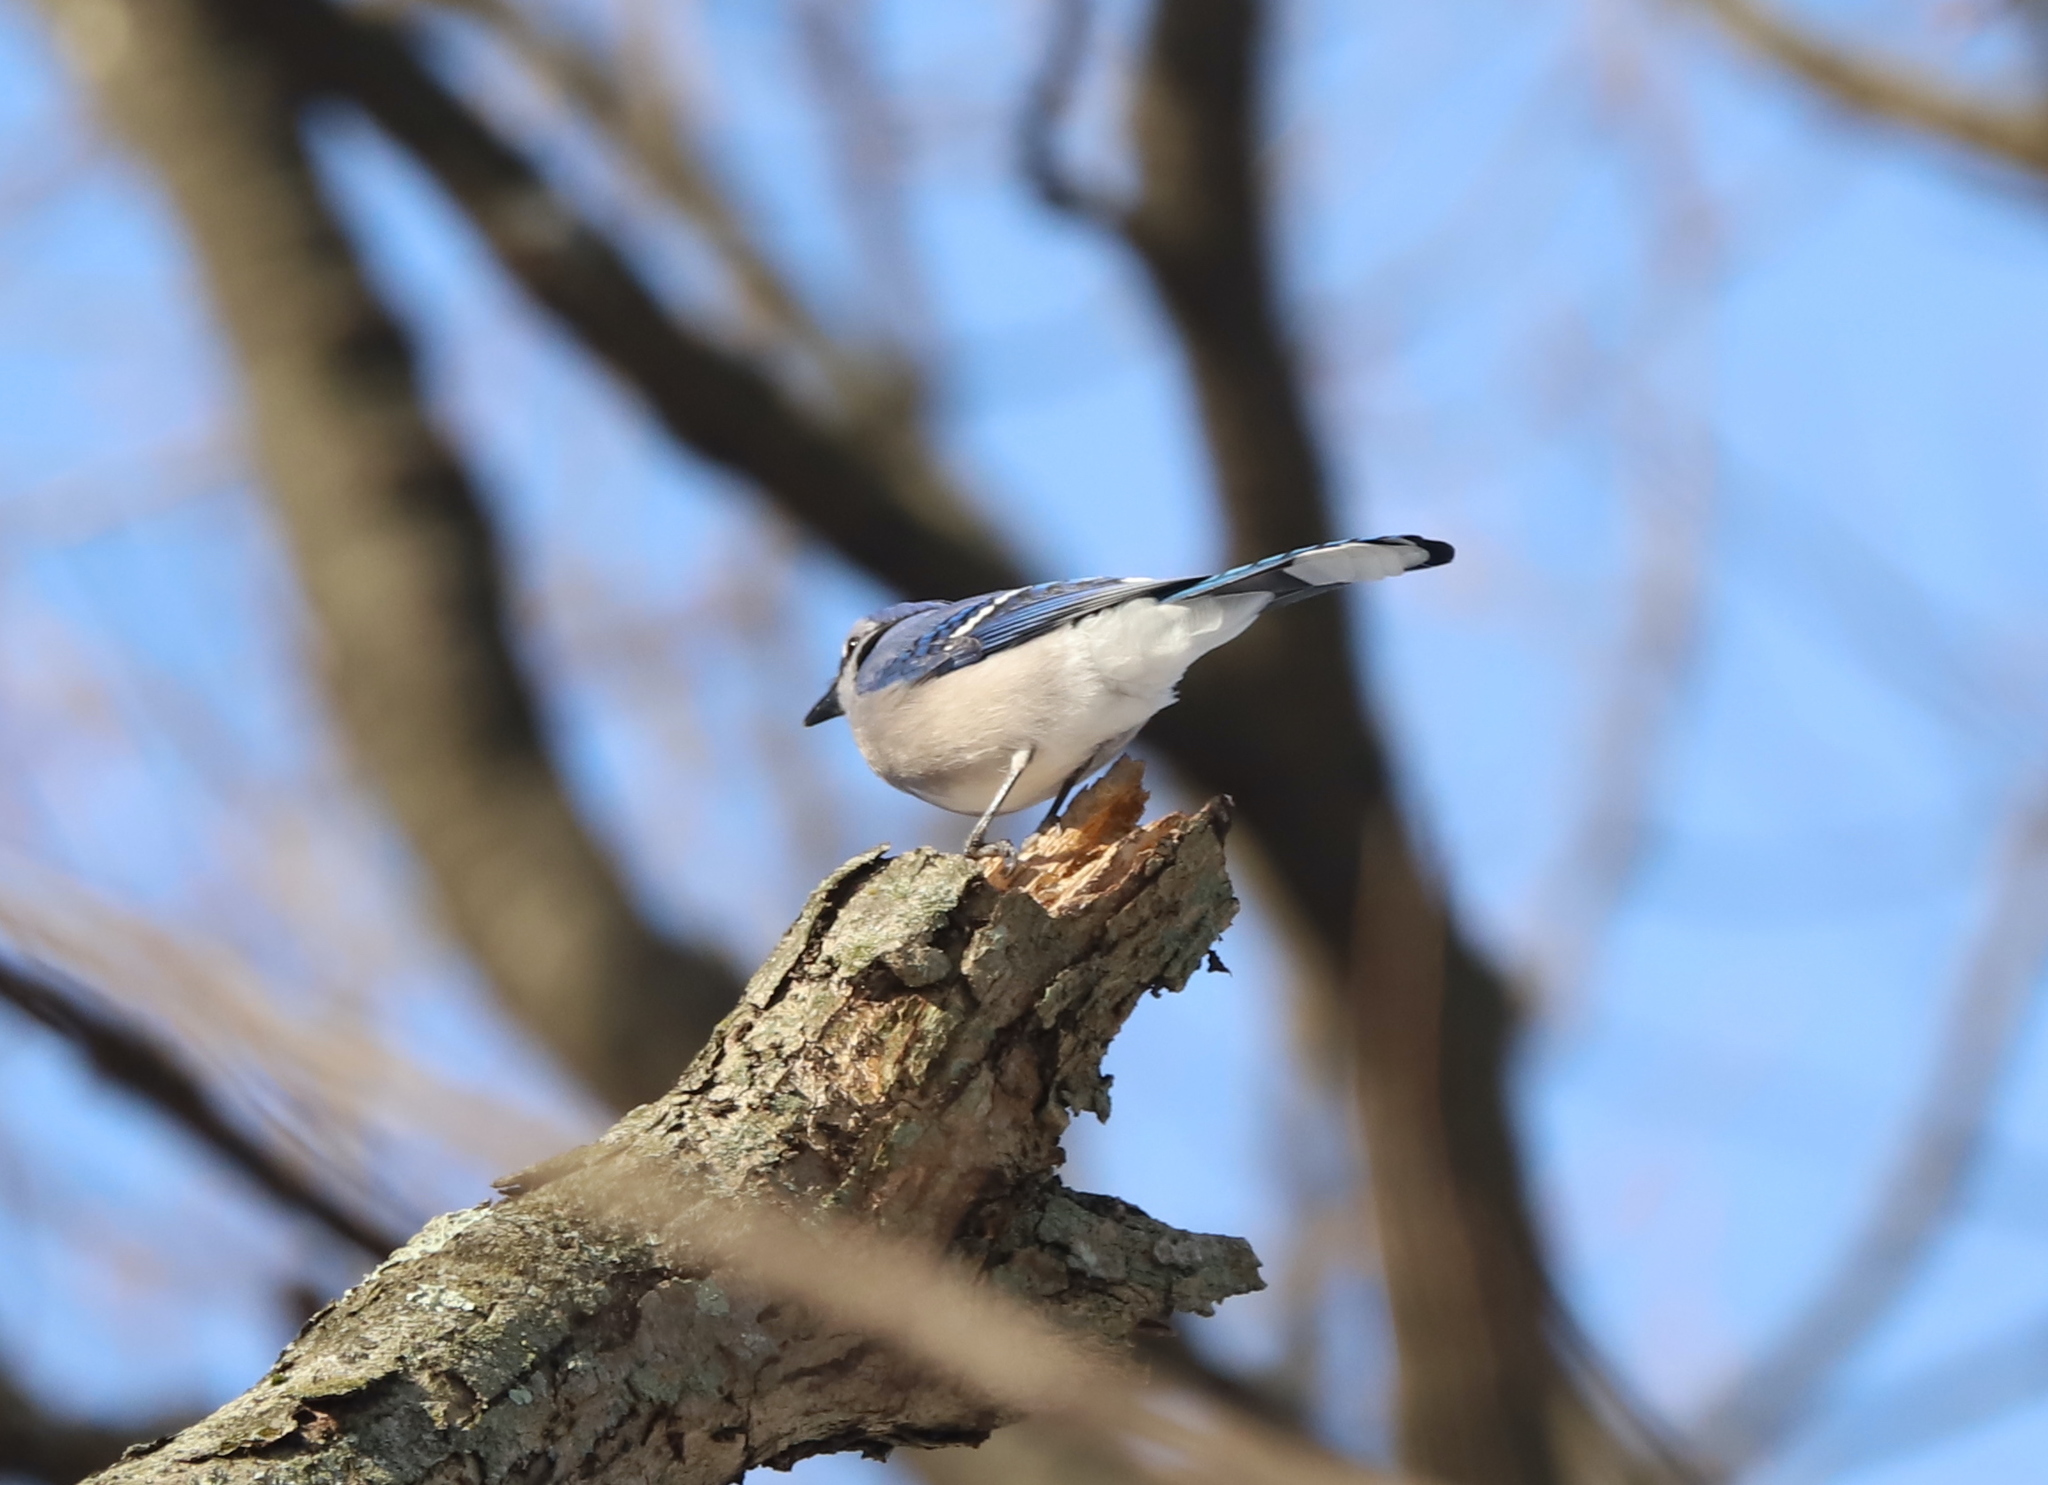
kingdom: Animalia
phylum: Chordata
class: Aves
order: Passeriformes
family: Corvidae
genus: Cyanocitta
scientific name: Cyanocitta cristata
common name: Blue jay
